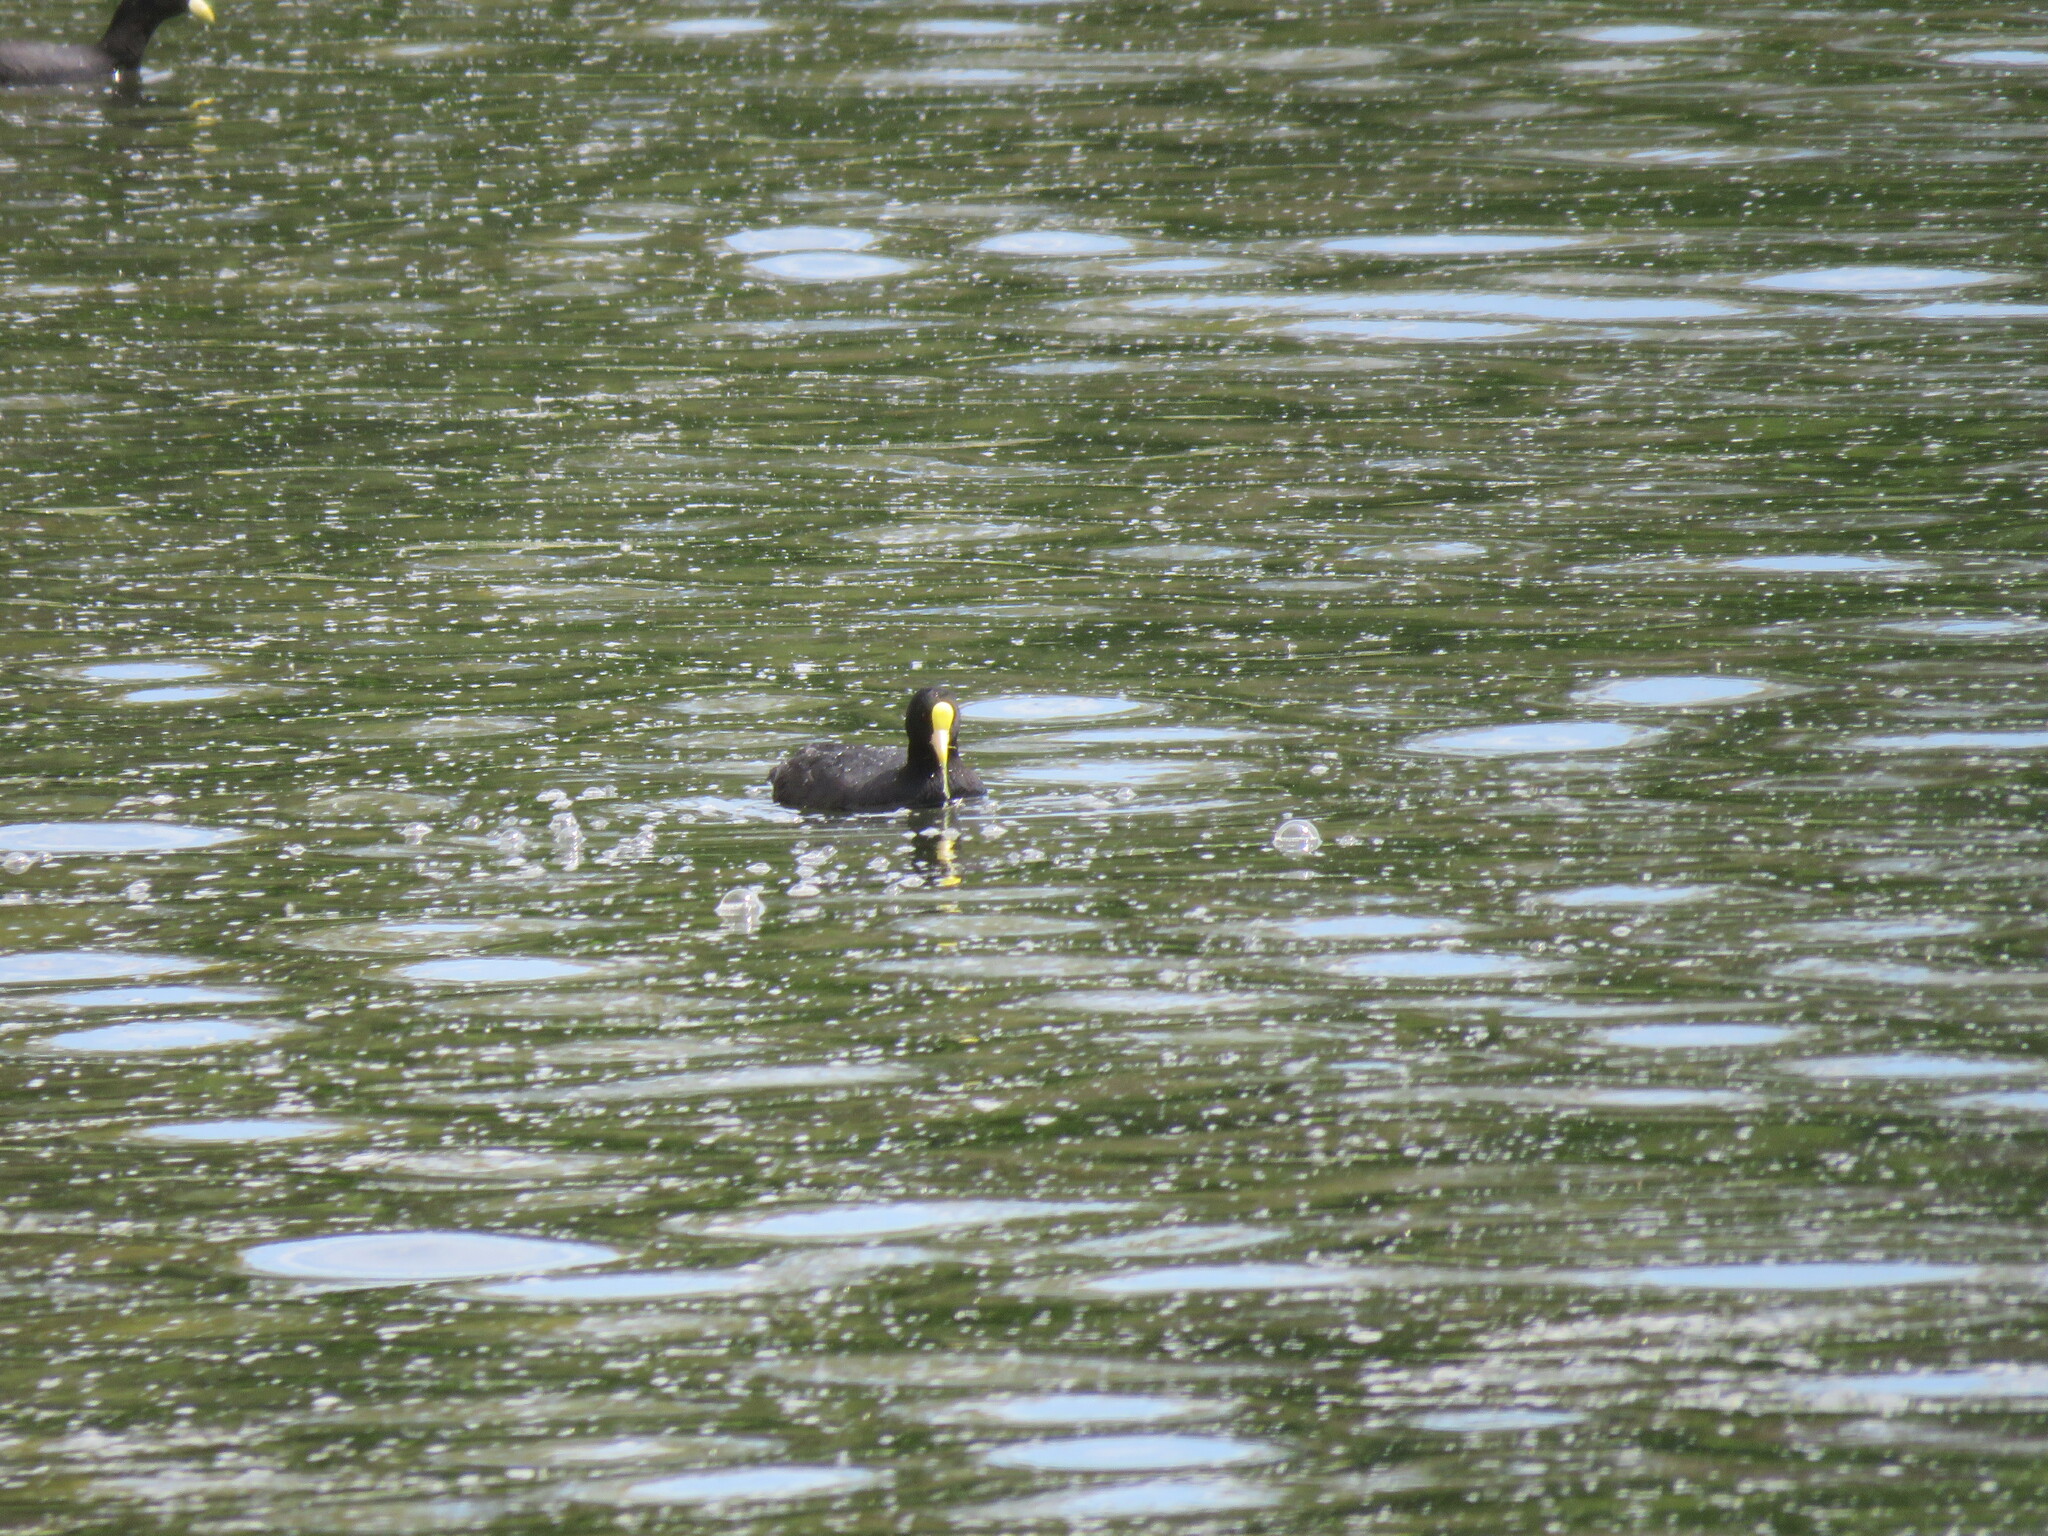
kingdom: Animalia
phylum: Chordata
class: Aves
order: Gruiformes
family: Rallidae
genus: Fulica
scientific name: Fulica leucoptera
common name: White-winged coot
